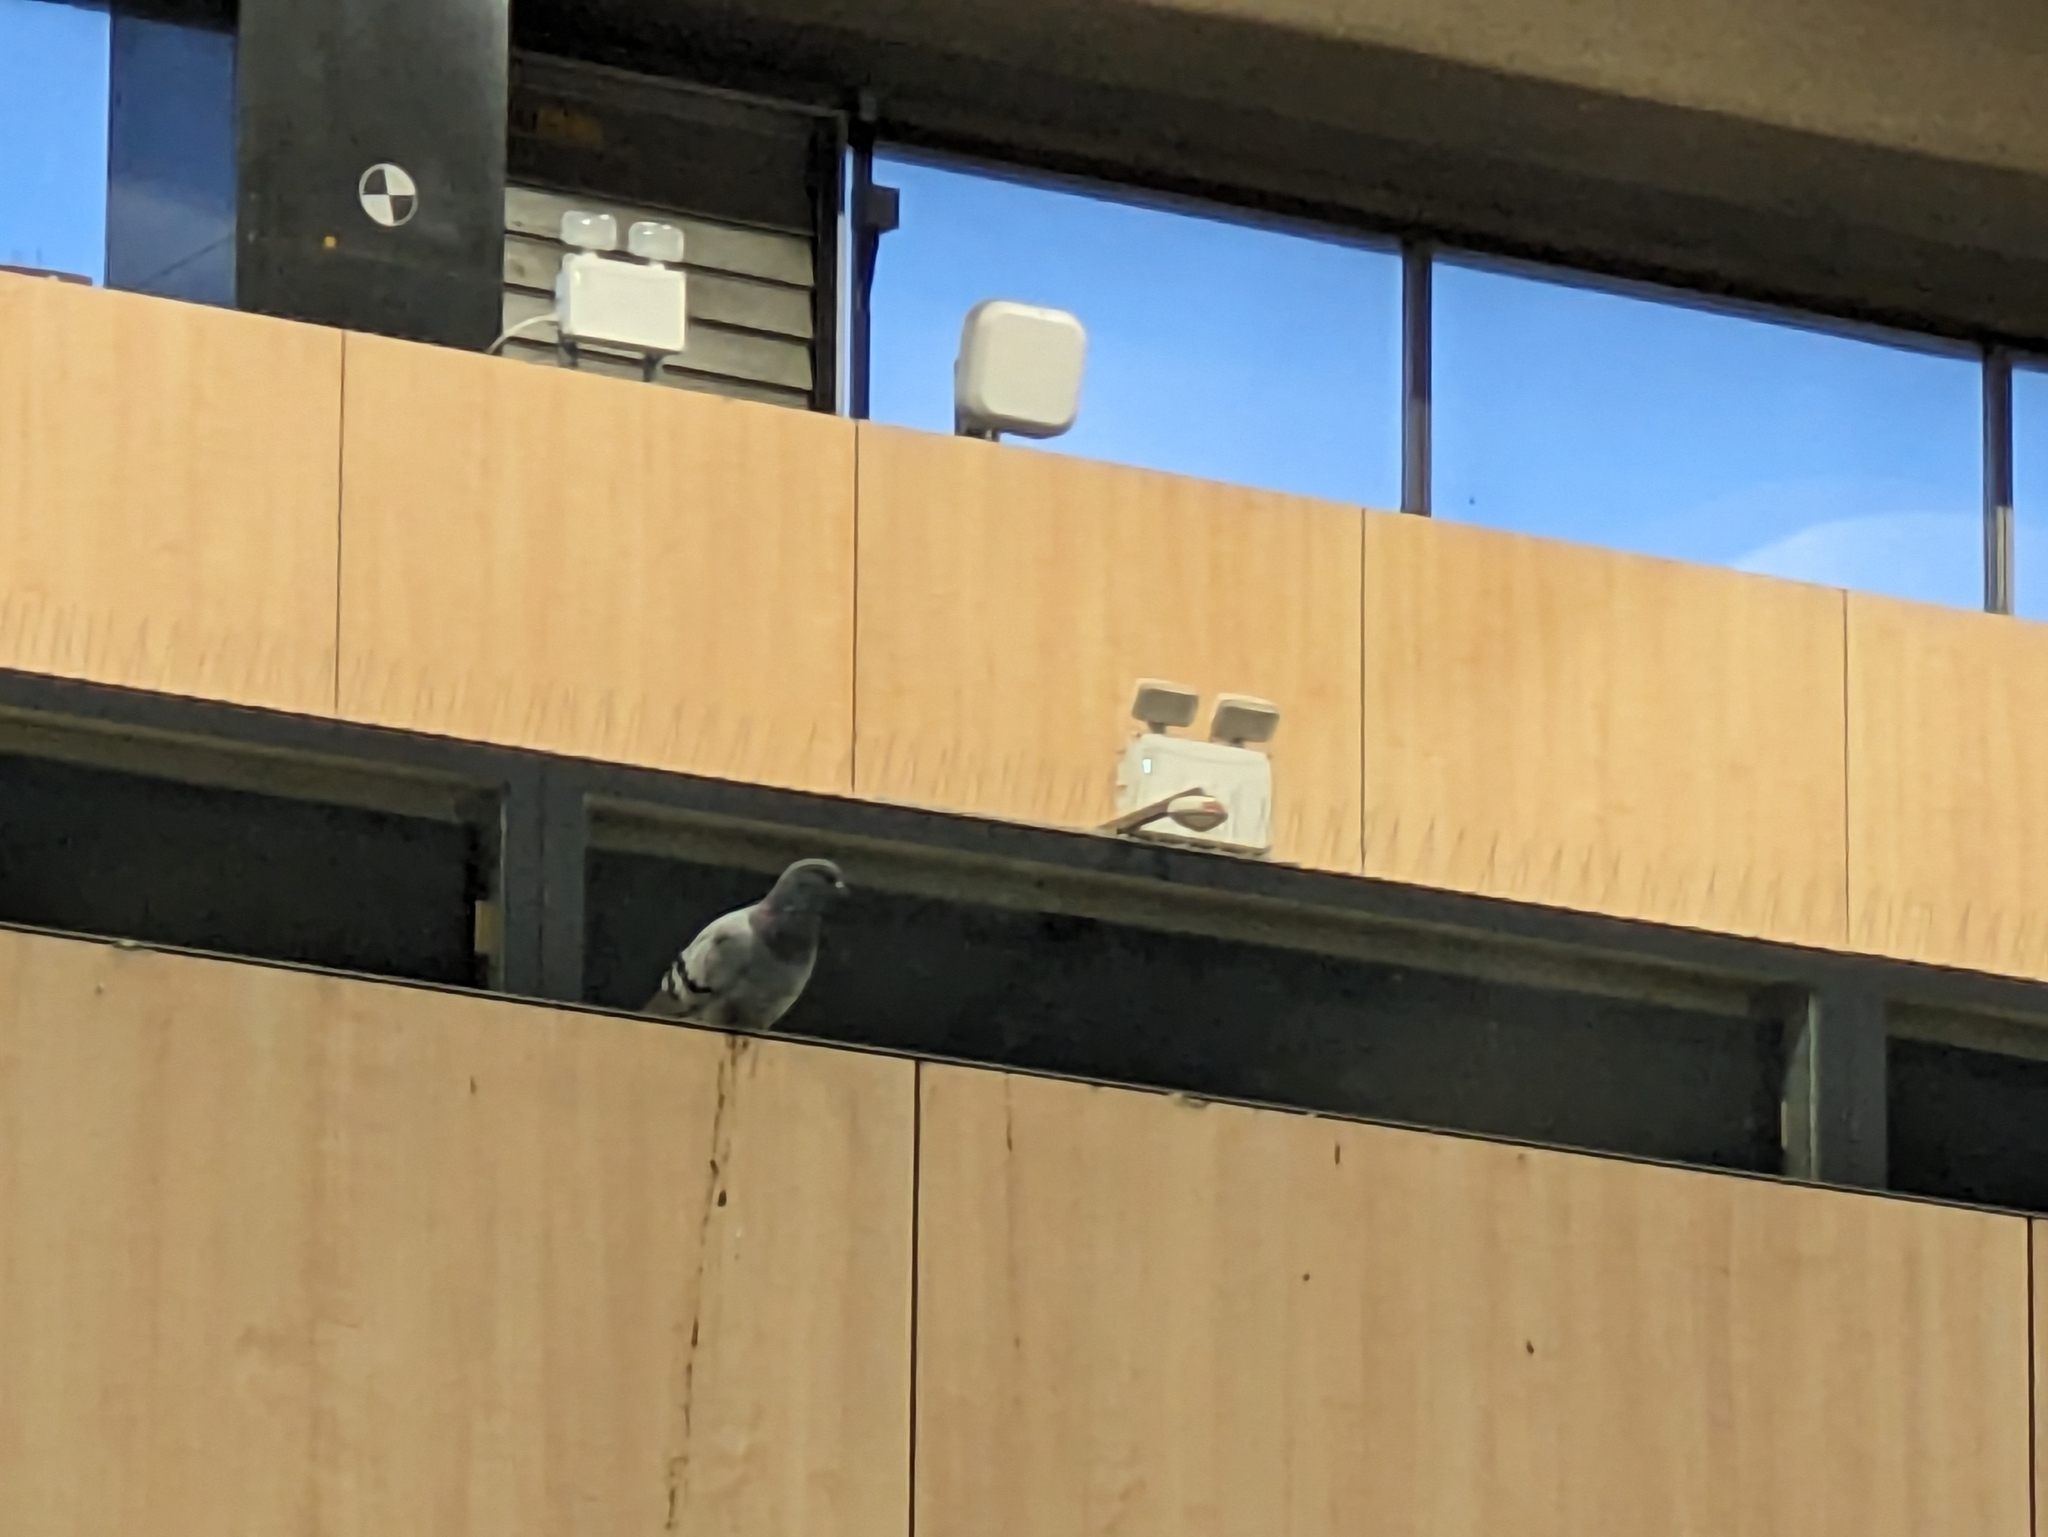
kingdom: Animalia
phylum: Chordata
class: Aves
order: Columbiformes
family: Columbidae
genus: Columba
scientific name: Columba livia
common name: Rock pigeon
